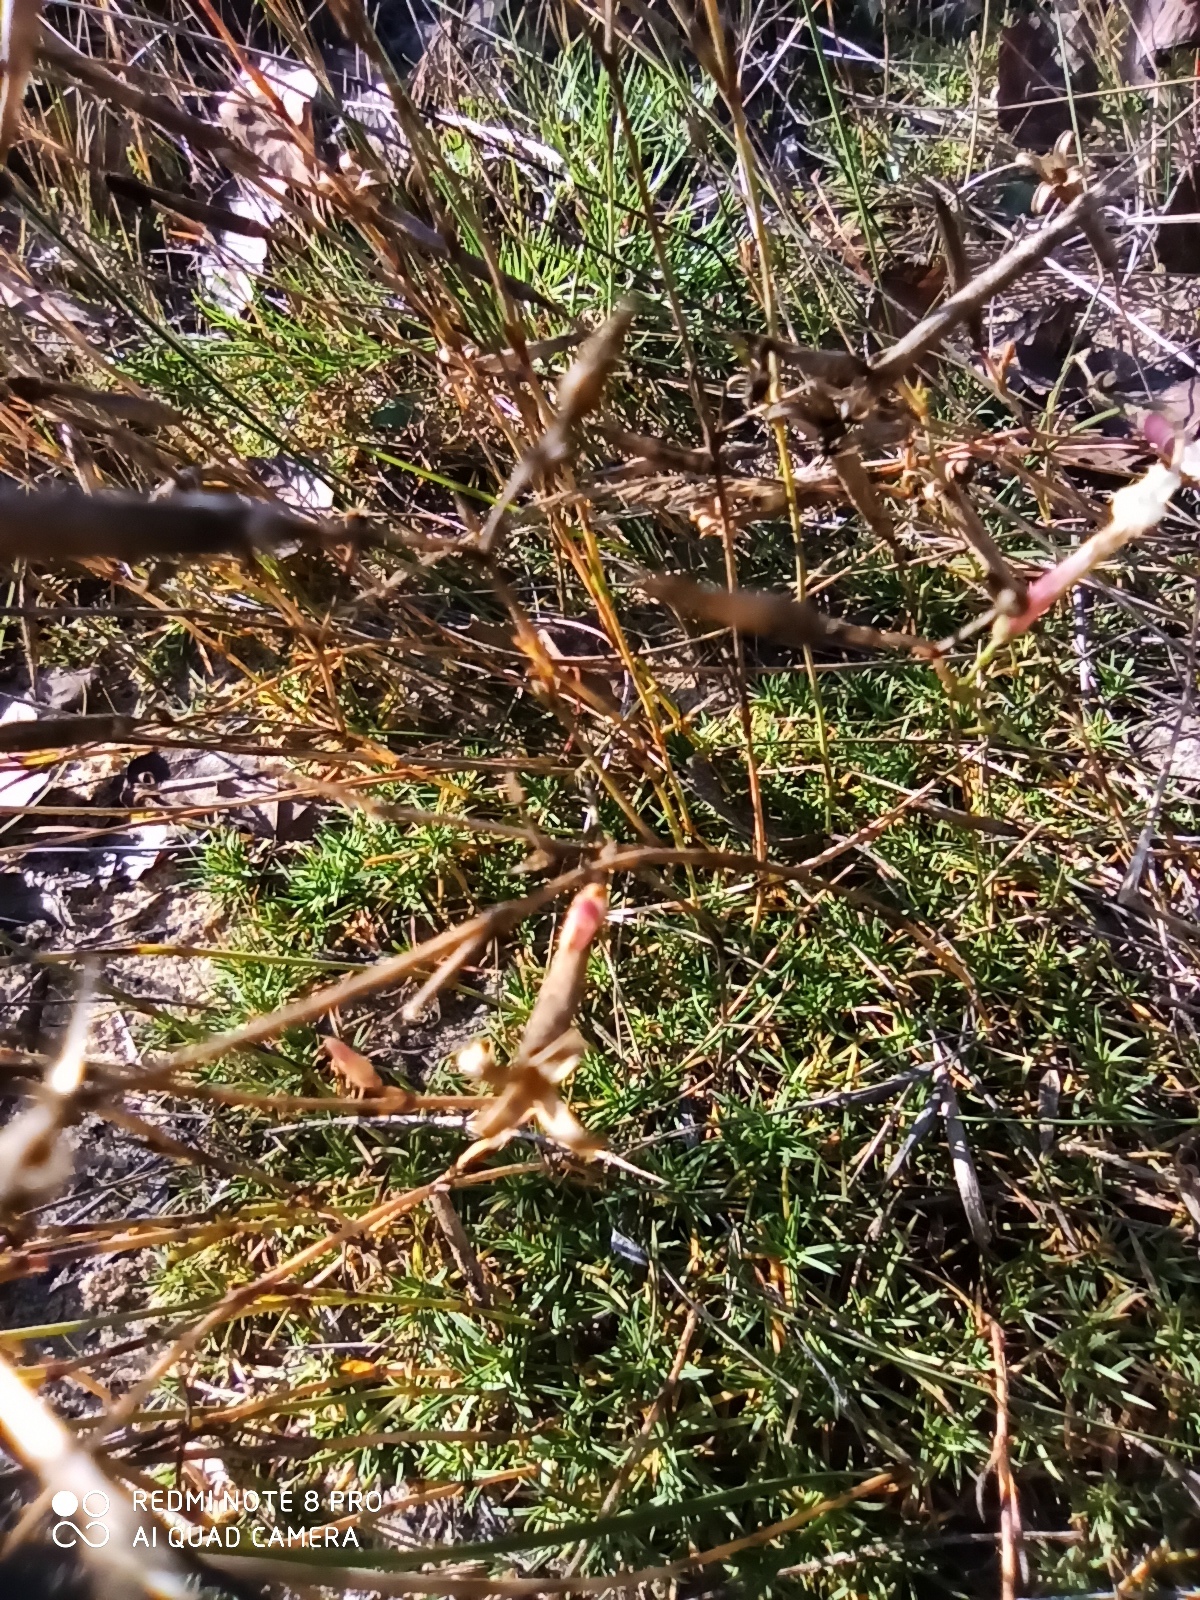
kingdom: Plantae
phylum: Tracheophyta
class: Magnoliopsida
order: Caryophyllales
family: Caryophyllaceae
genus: Dianthus
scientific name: Dianthus arenarius
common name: Stone pink
